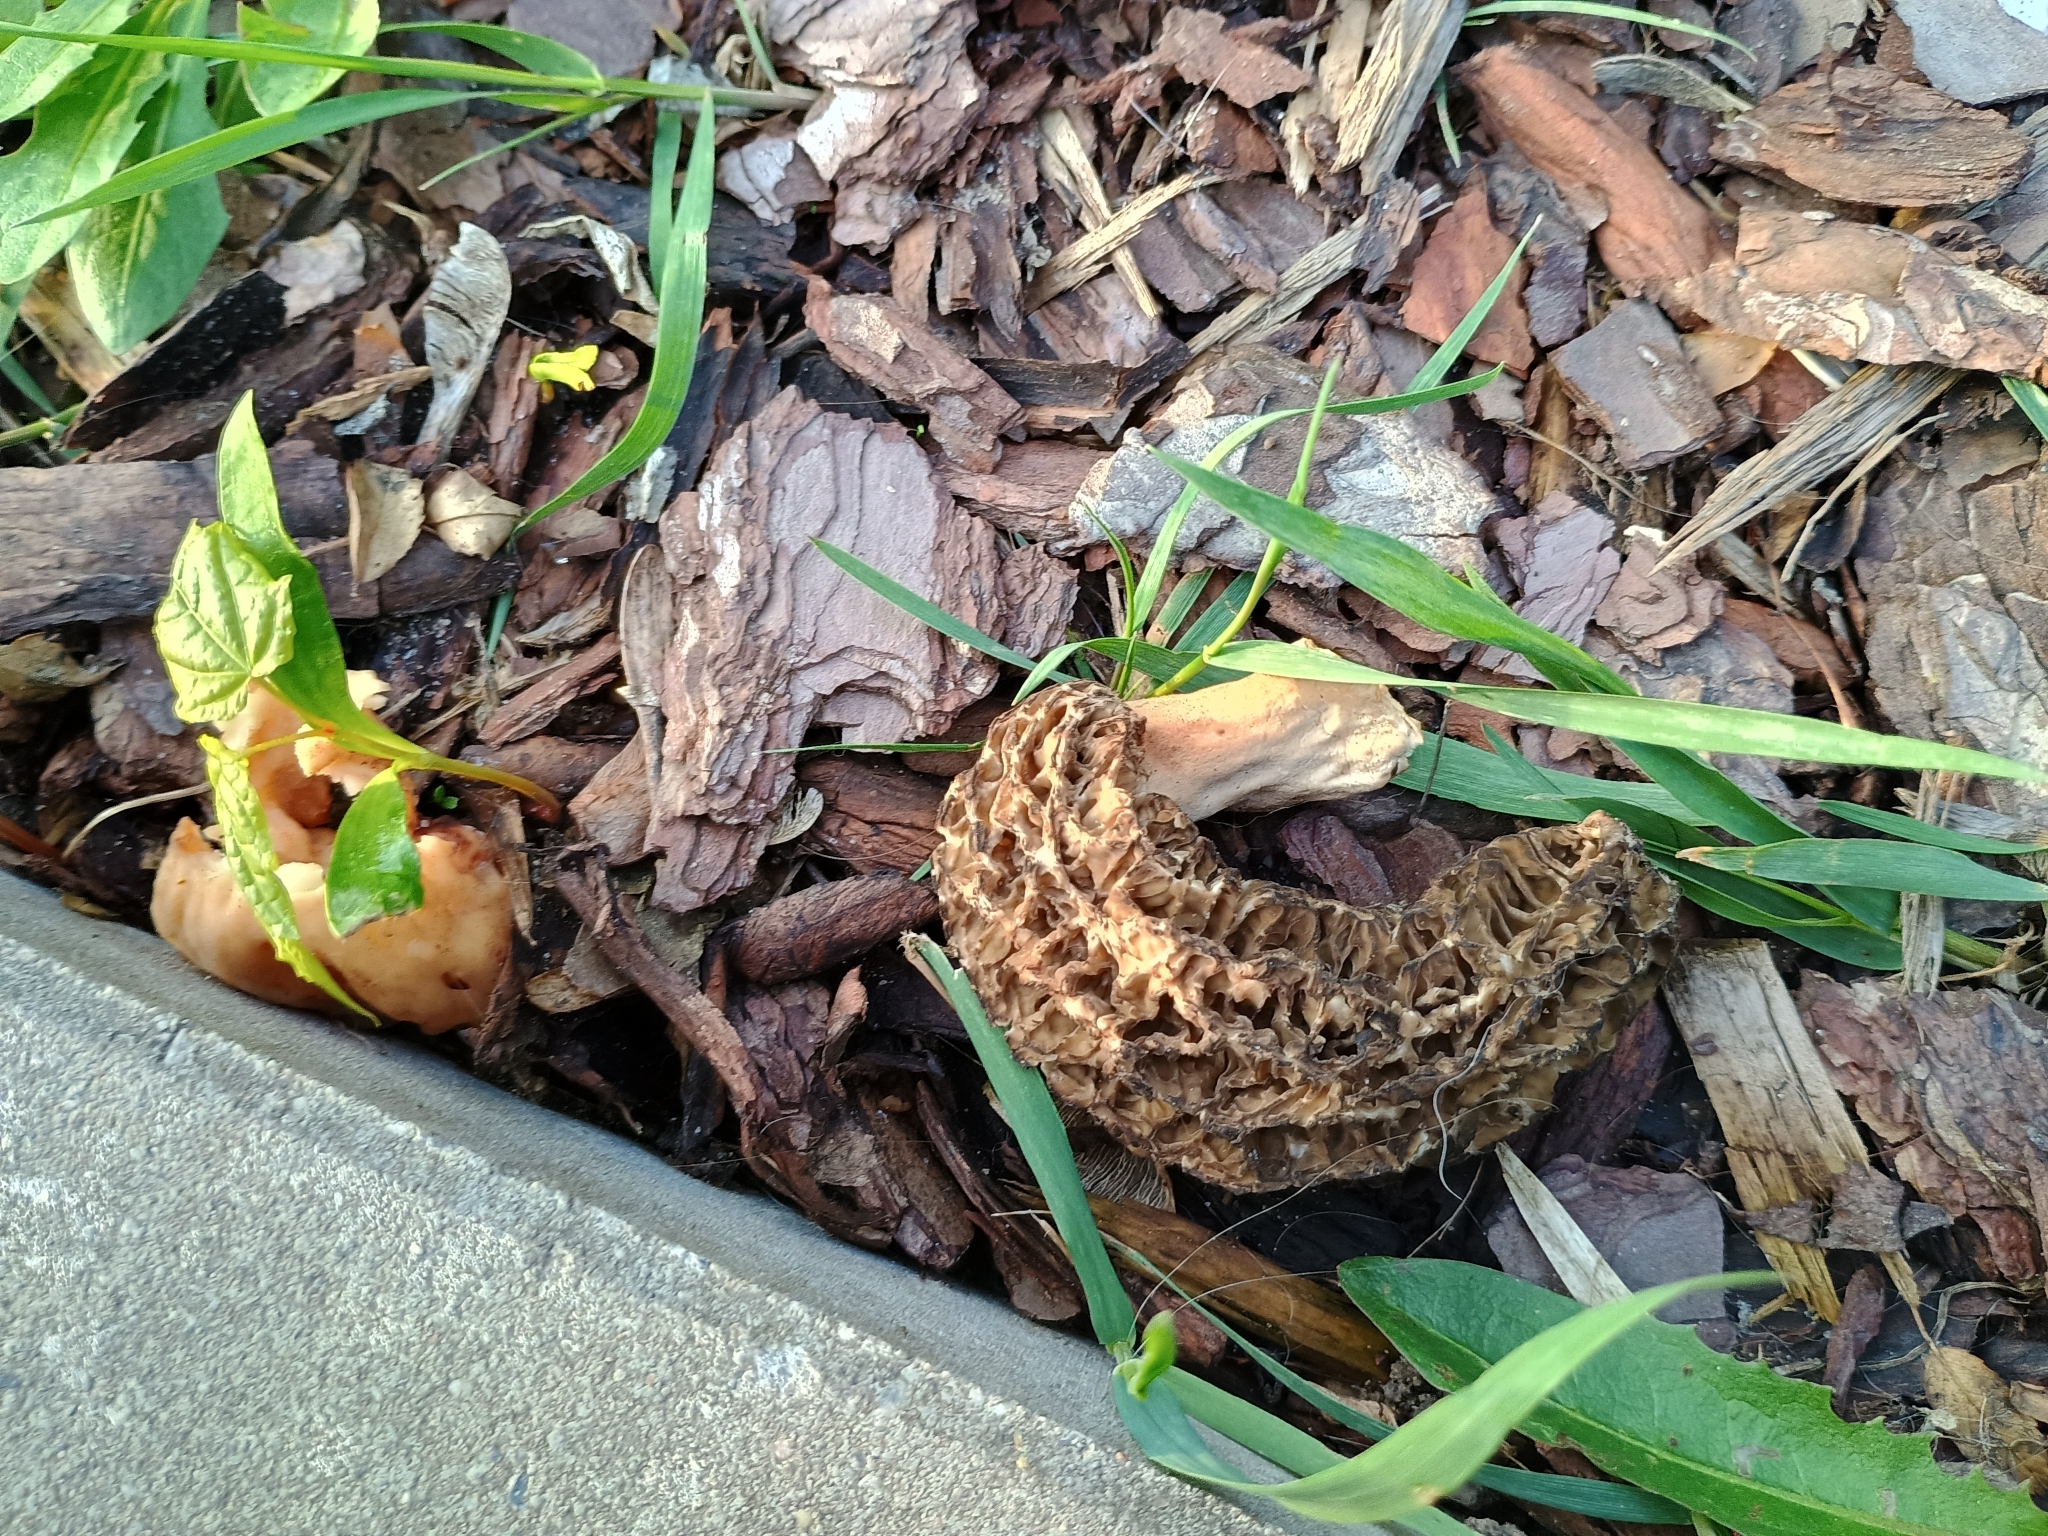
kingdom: Fungi
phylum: Ascomycota
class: Pezizomycetes
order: Pezizales
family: Morchellaceae
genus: Morchella
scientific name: Morchella elata
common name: Black morel
